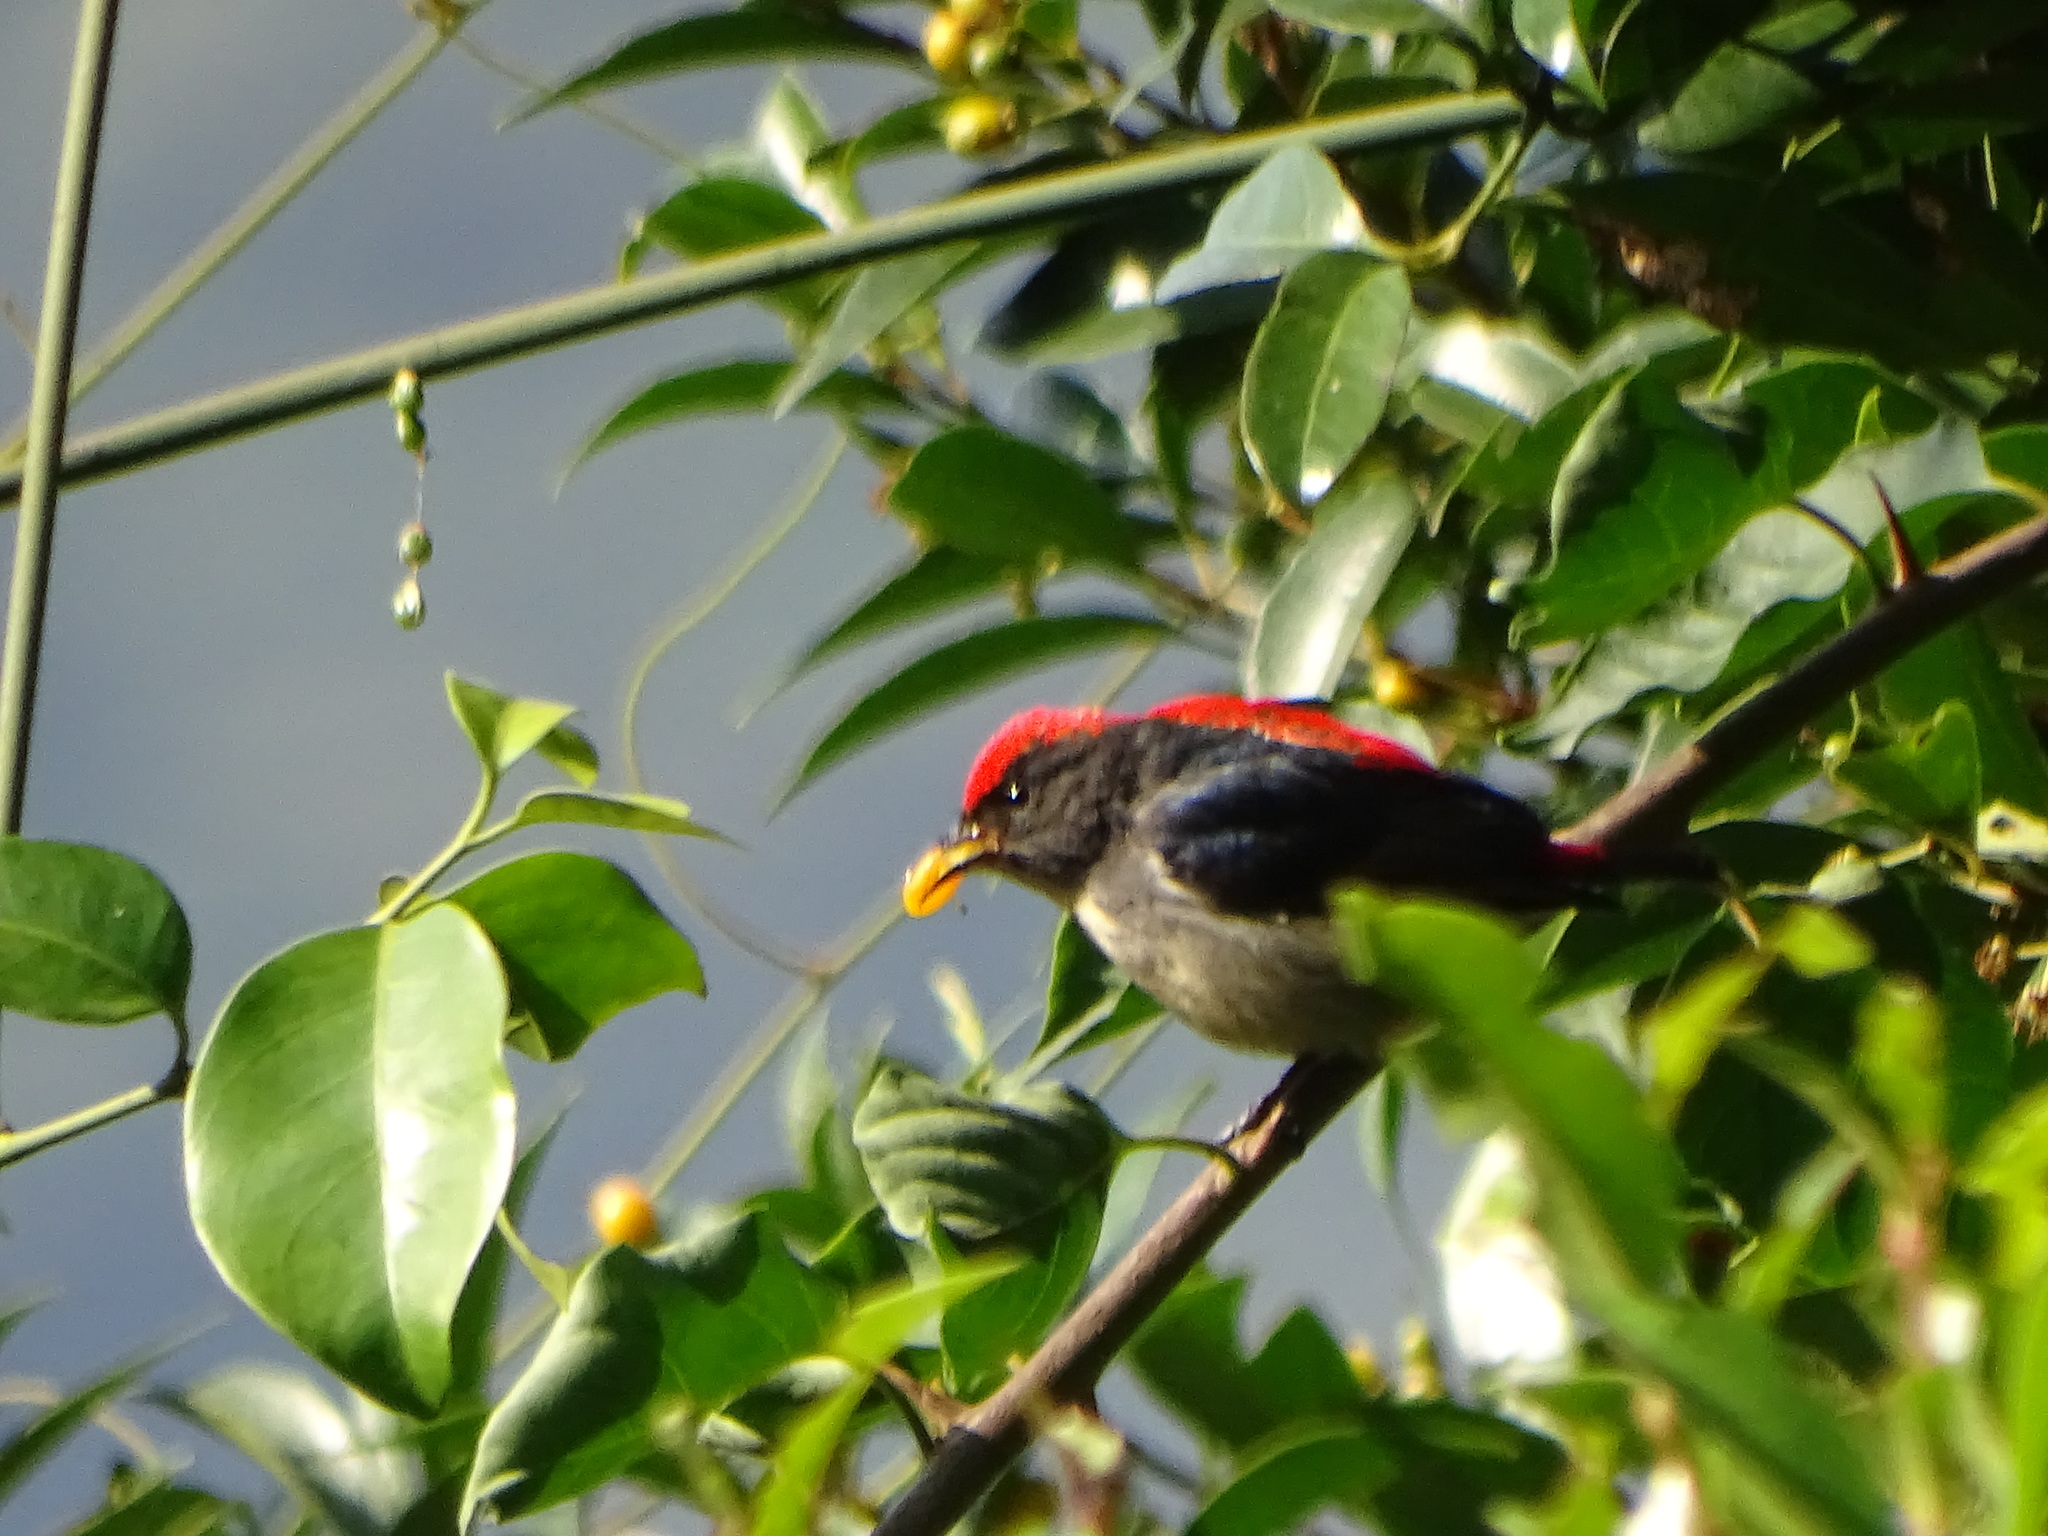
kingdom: Animalia
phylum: Chordata
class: Aves
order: Passeriformes
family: Dicaeidae
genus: Dicaeum
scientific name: Dicaeum cruentatum
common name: Scarlet-backed flowerpecker
